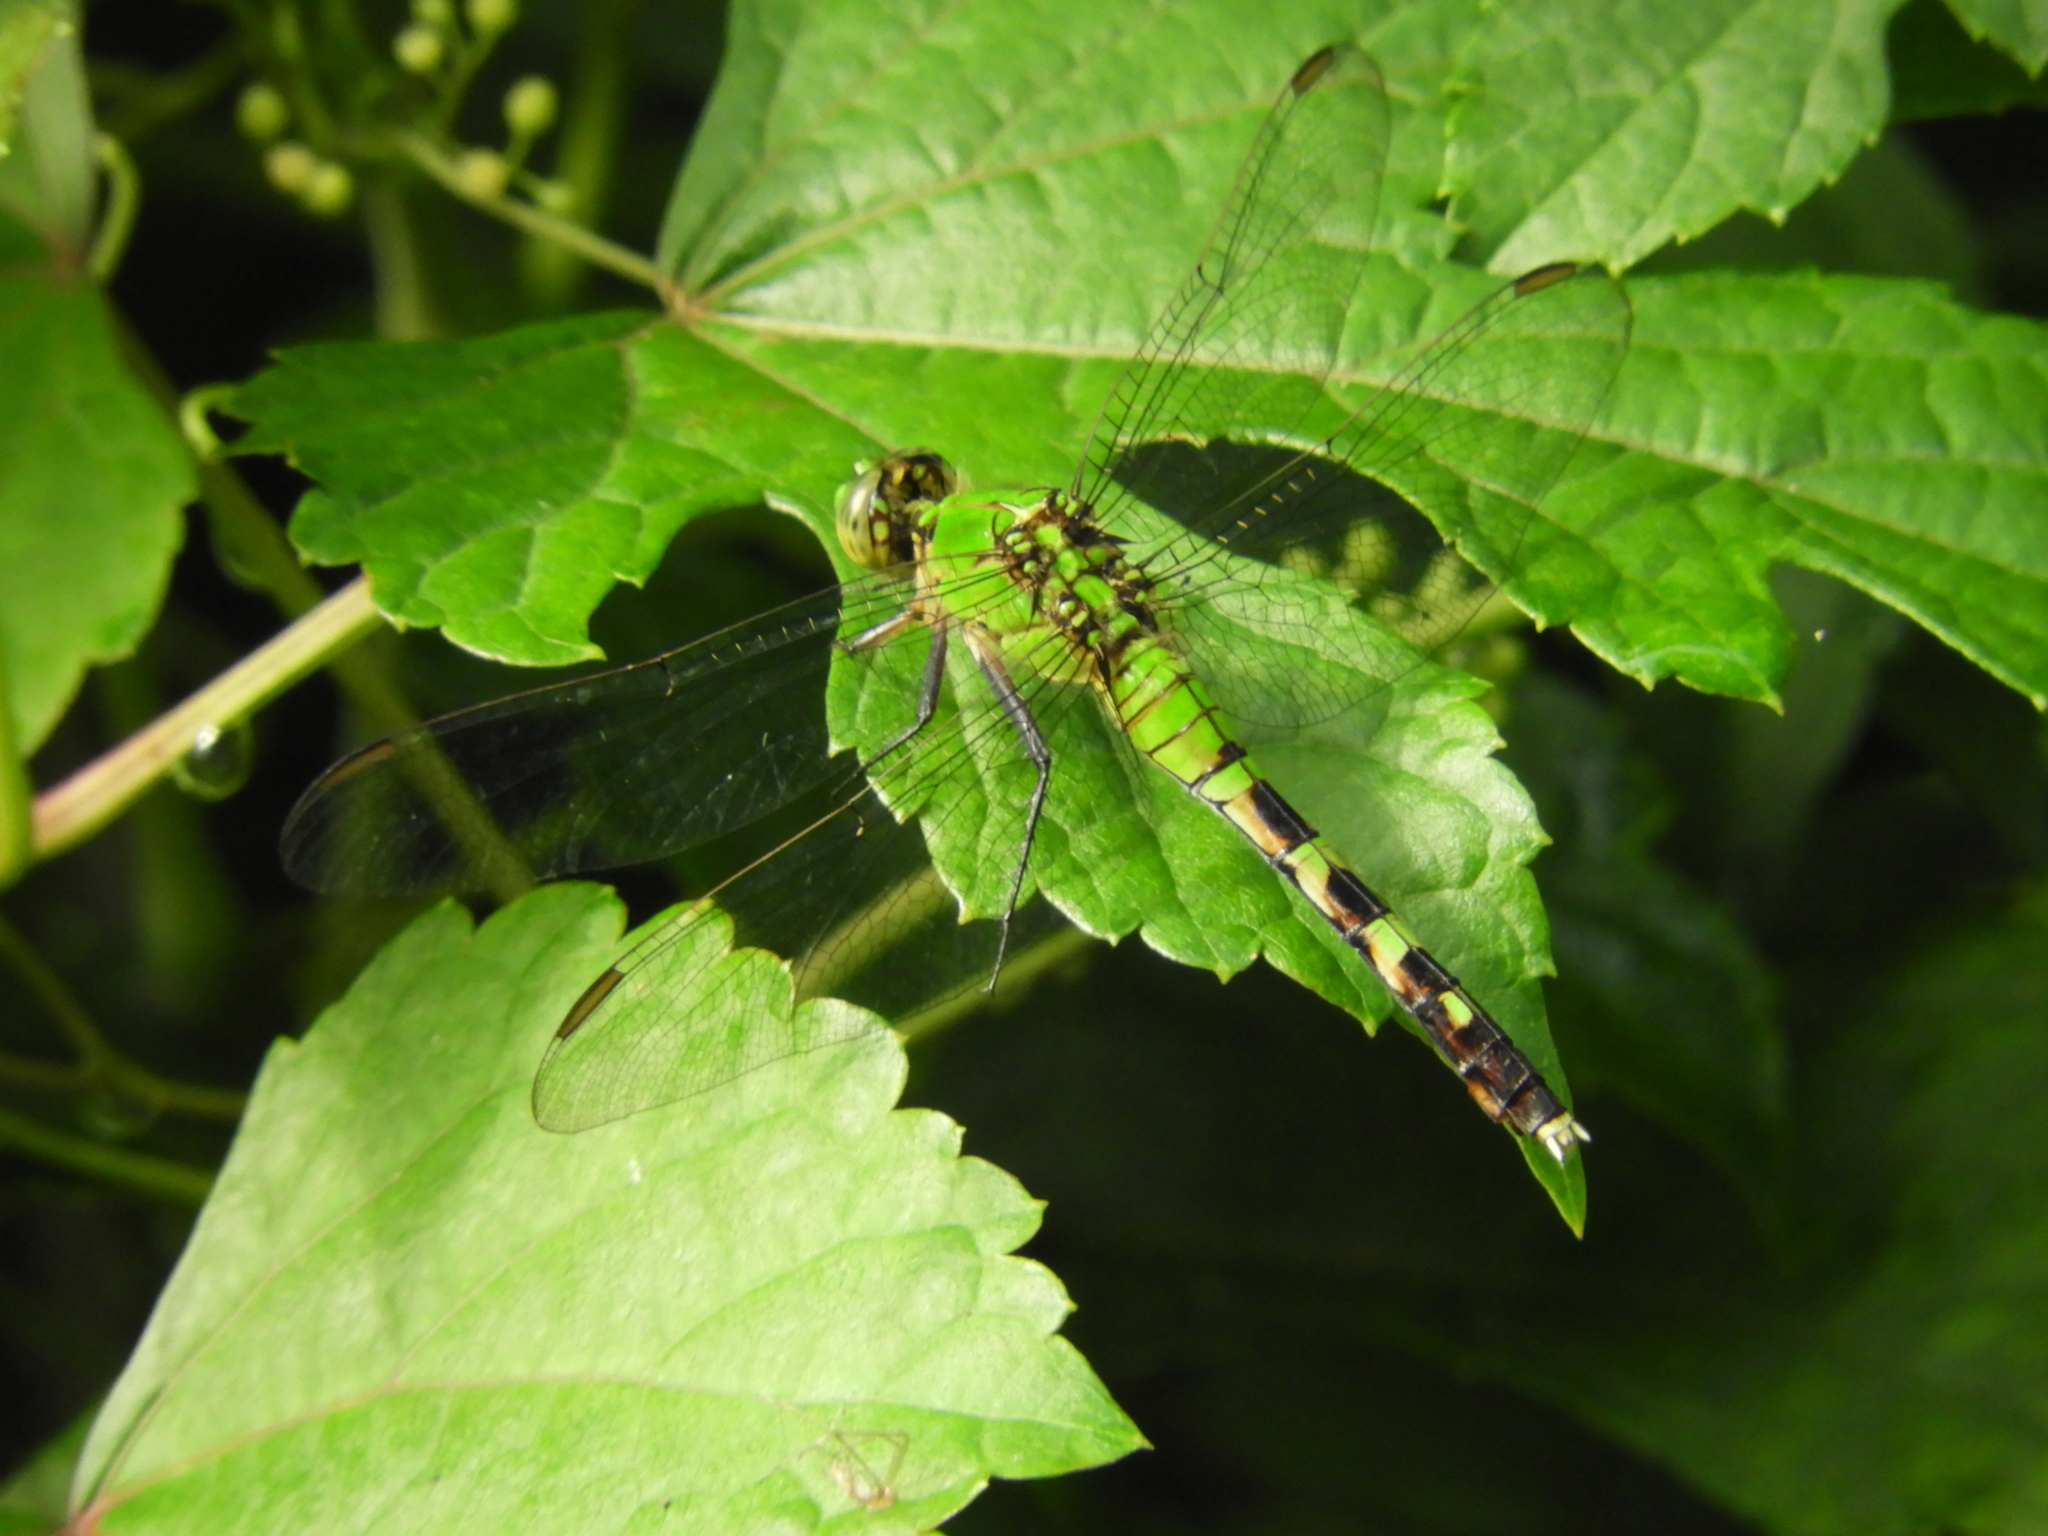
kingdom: Animalia
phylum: Arthropoda
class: Insecta
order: Odonata
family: Libellulidae
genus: Erythemis
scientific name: Erythemis simplicicollis
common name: Eastern pondhawk
